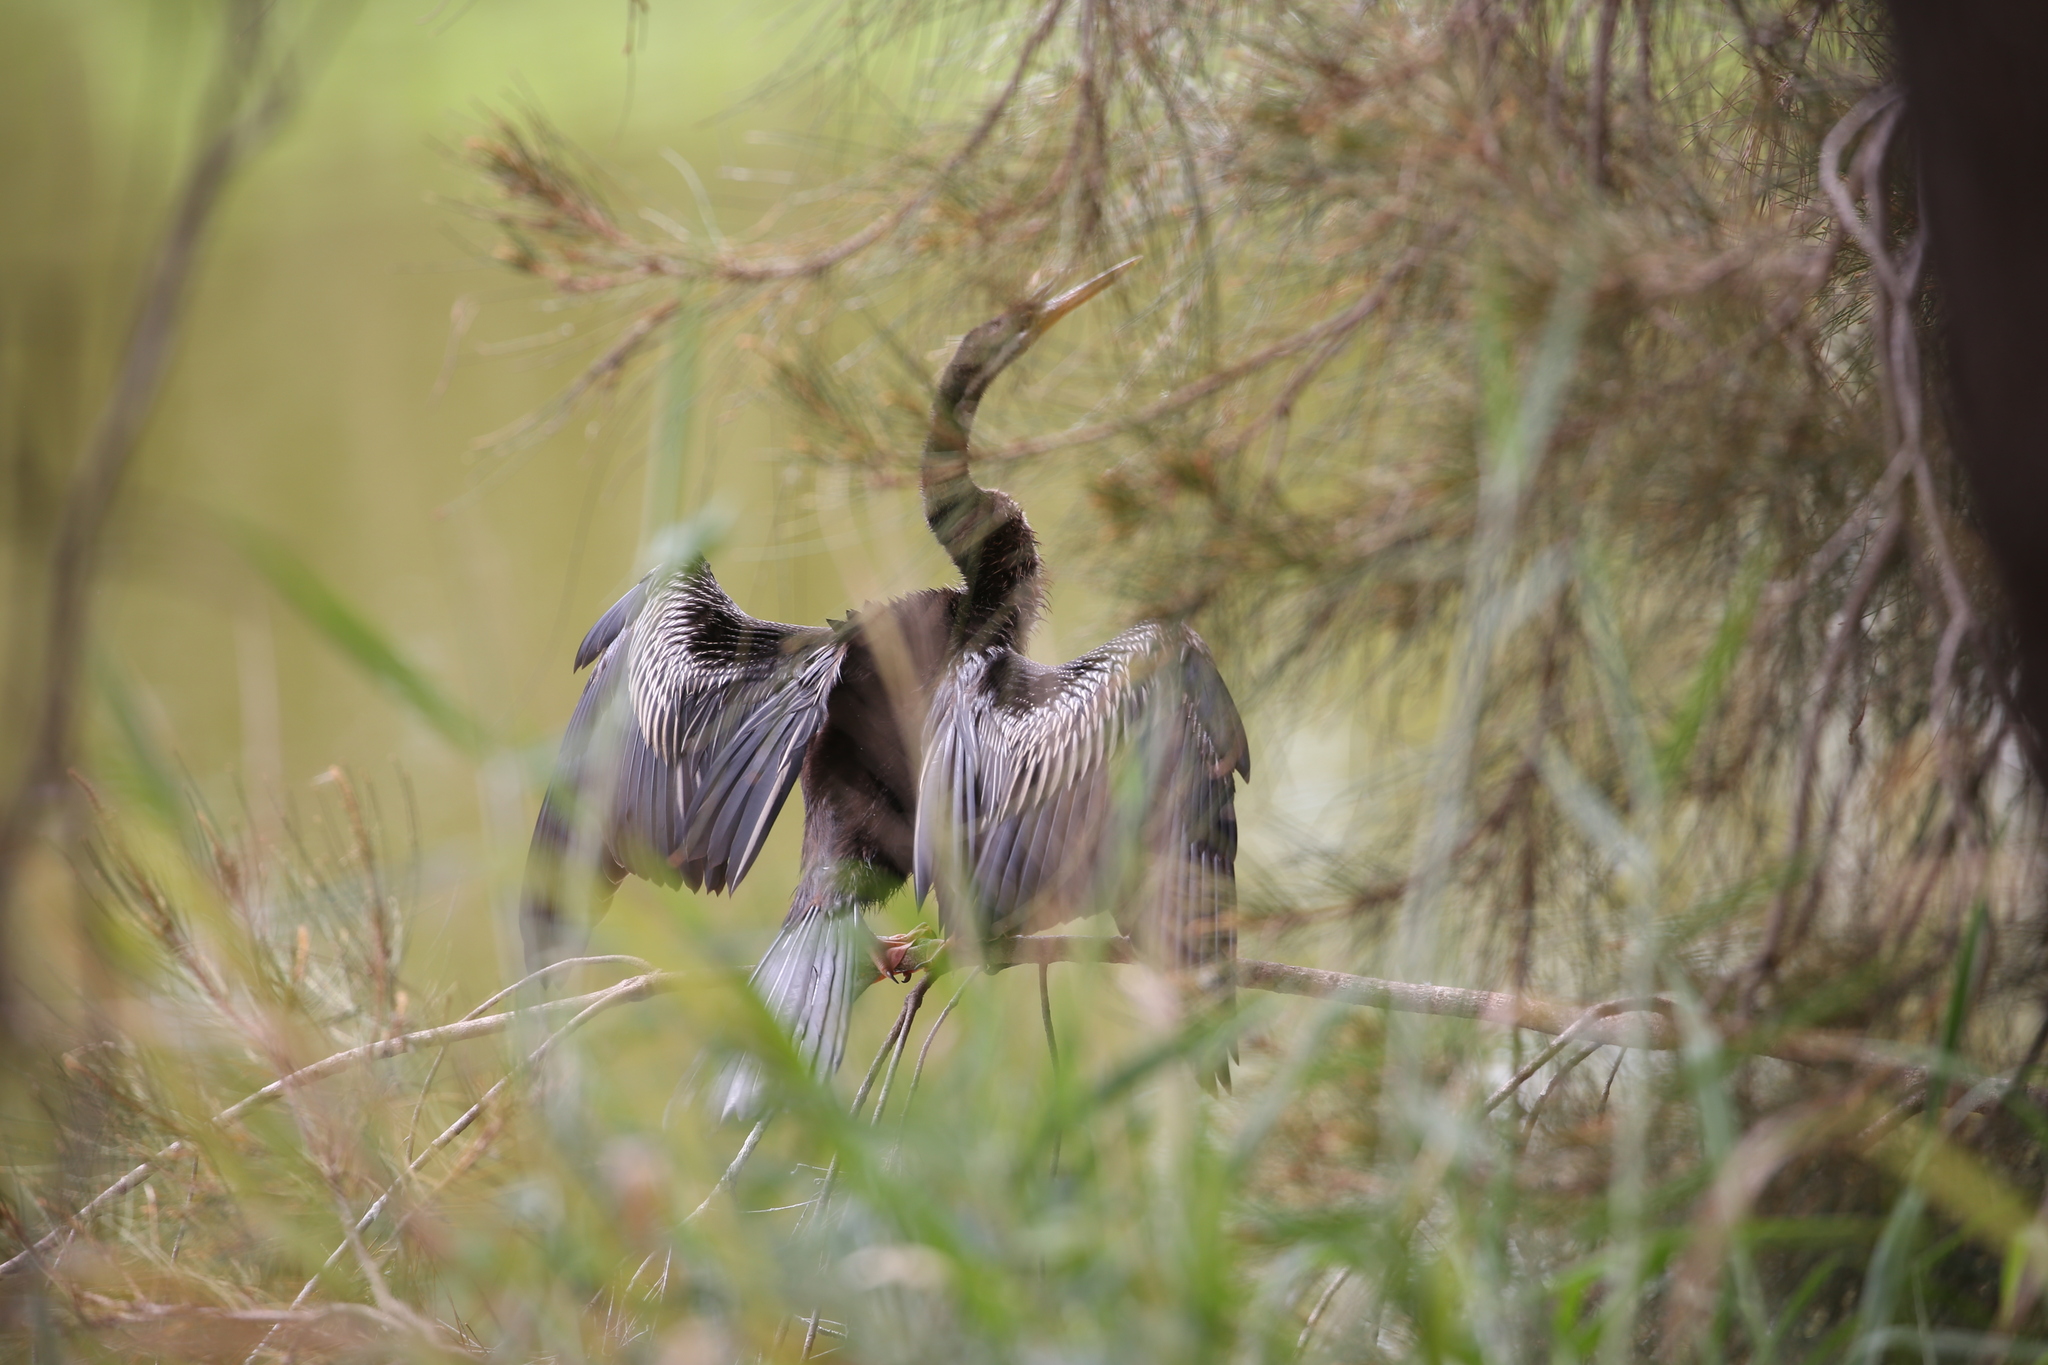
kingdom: Animalia
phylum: Chordata
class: Aves
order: Suliformes
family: Anhingidae
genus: Anhinga
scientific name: Anhinga novaehollandiae
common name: Australasian darter
